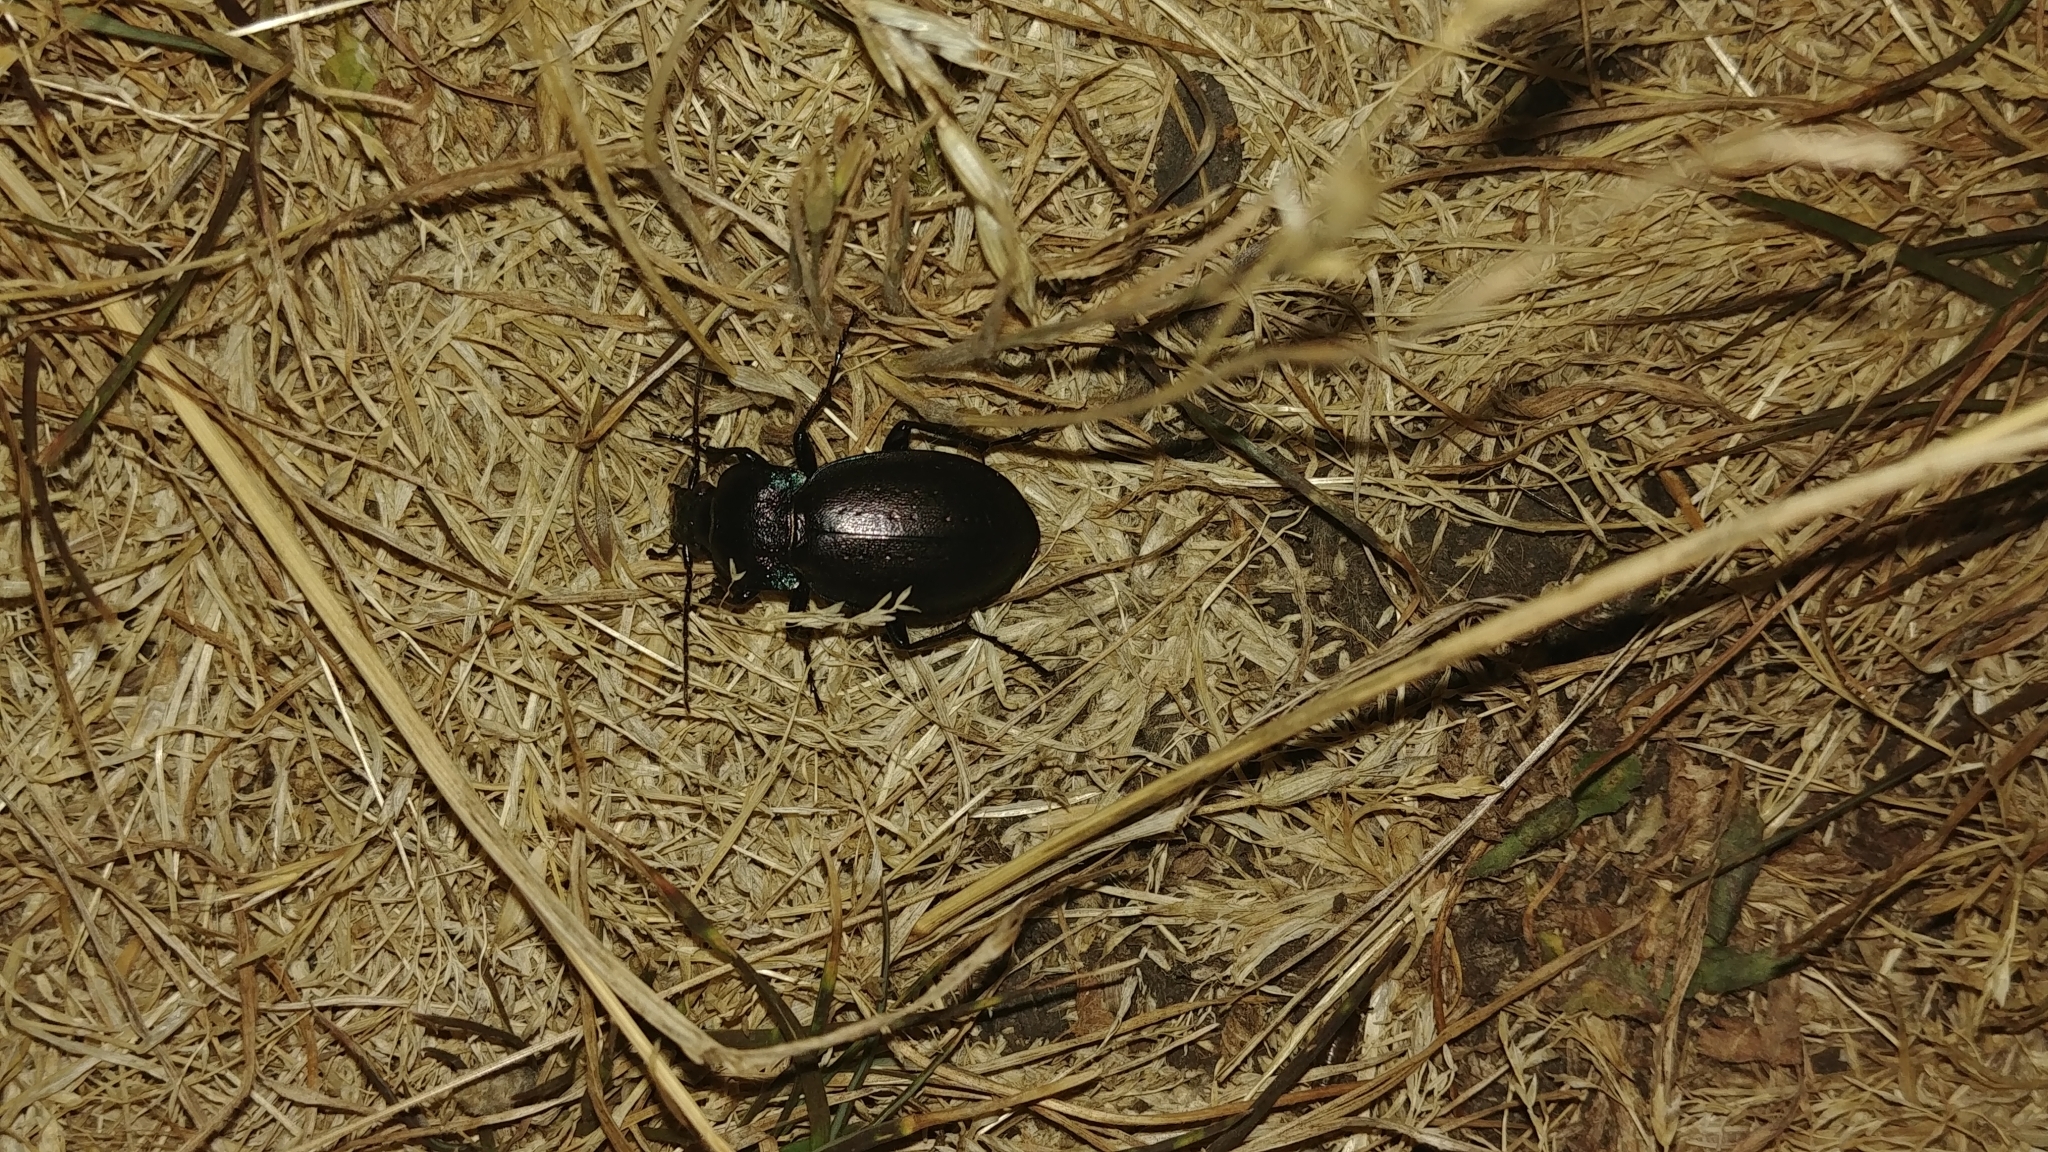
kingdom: Animalia
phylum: Arthropoda
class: Insecta
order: Coleoptera
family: Carabidae
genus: Carabus
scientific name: Carabus nemoralis
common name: European ground beetle
